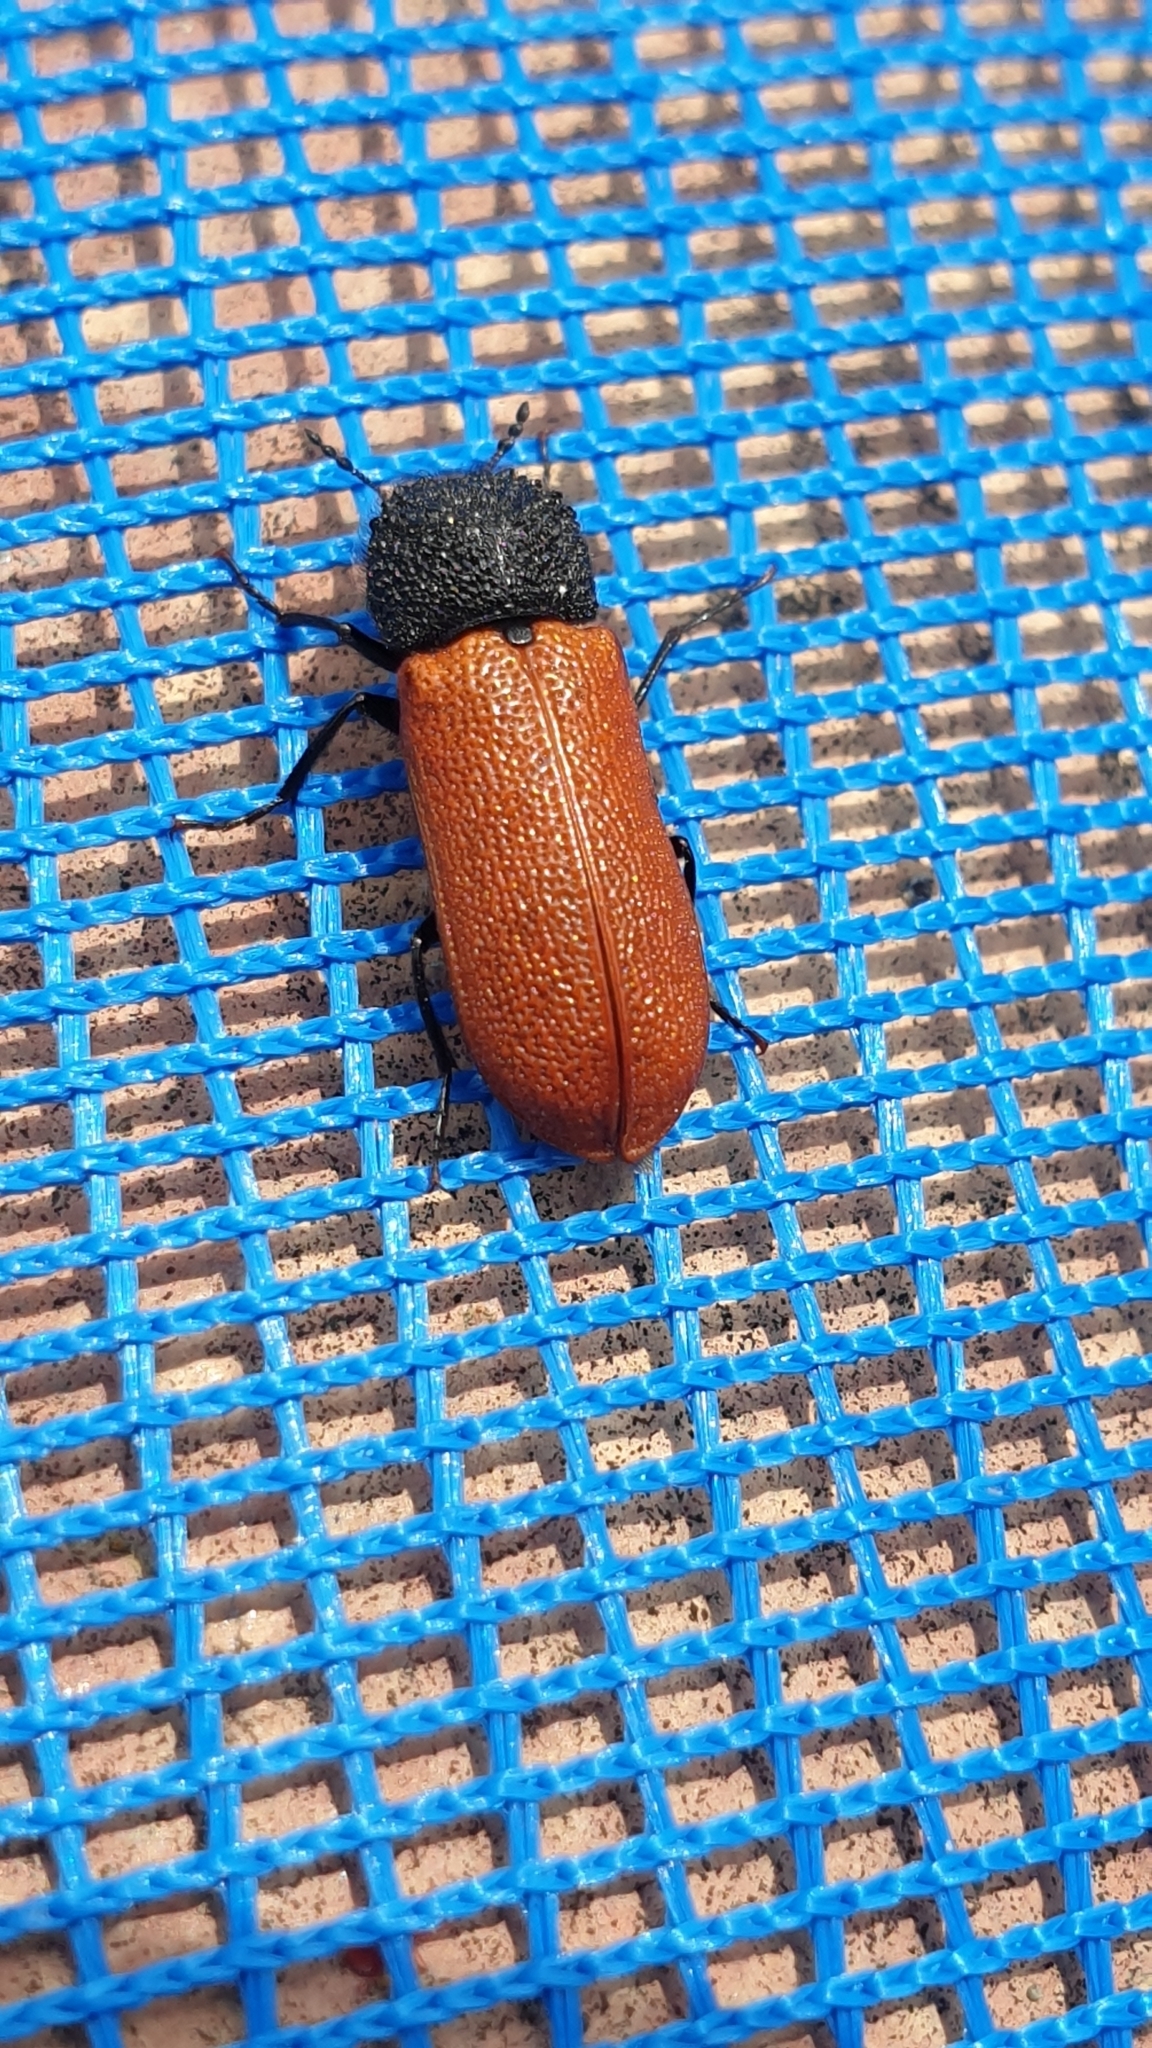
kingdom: Animalia
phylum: Arthropoda
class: Insecta
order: Coleoptera
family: Bostrichidae
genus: Bostrichus
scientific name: Bostrichus capucinus
